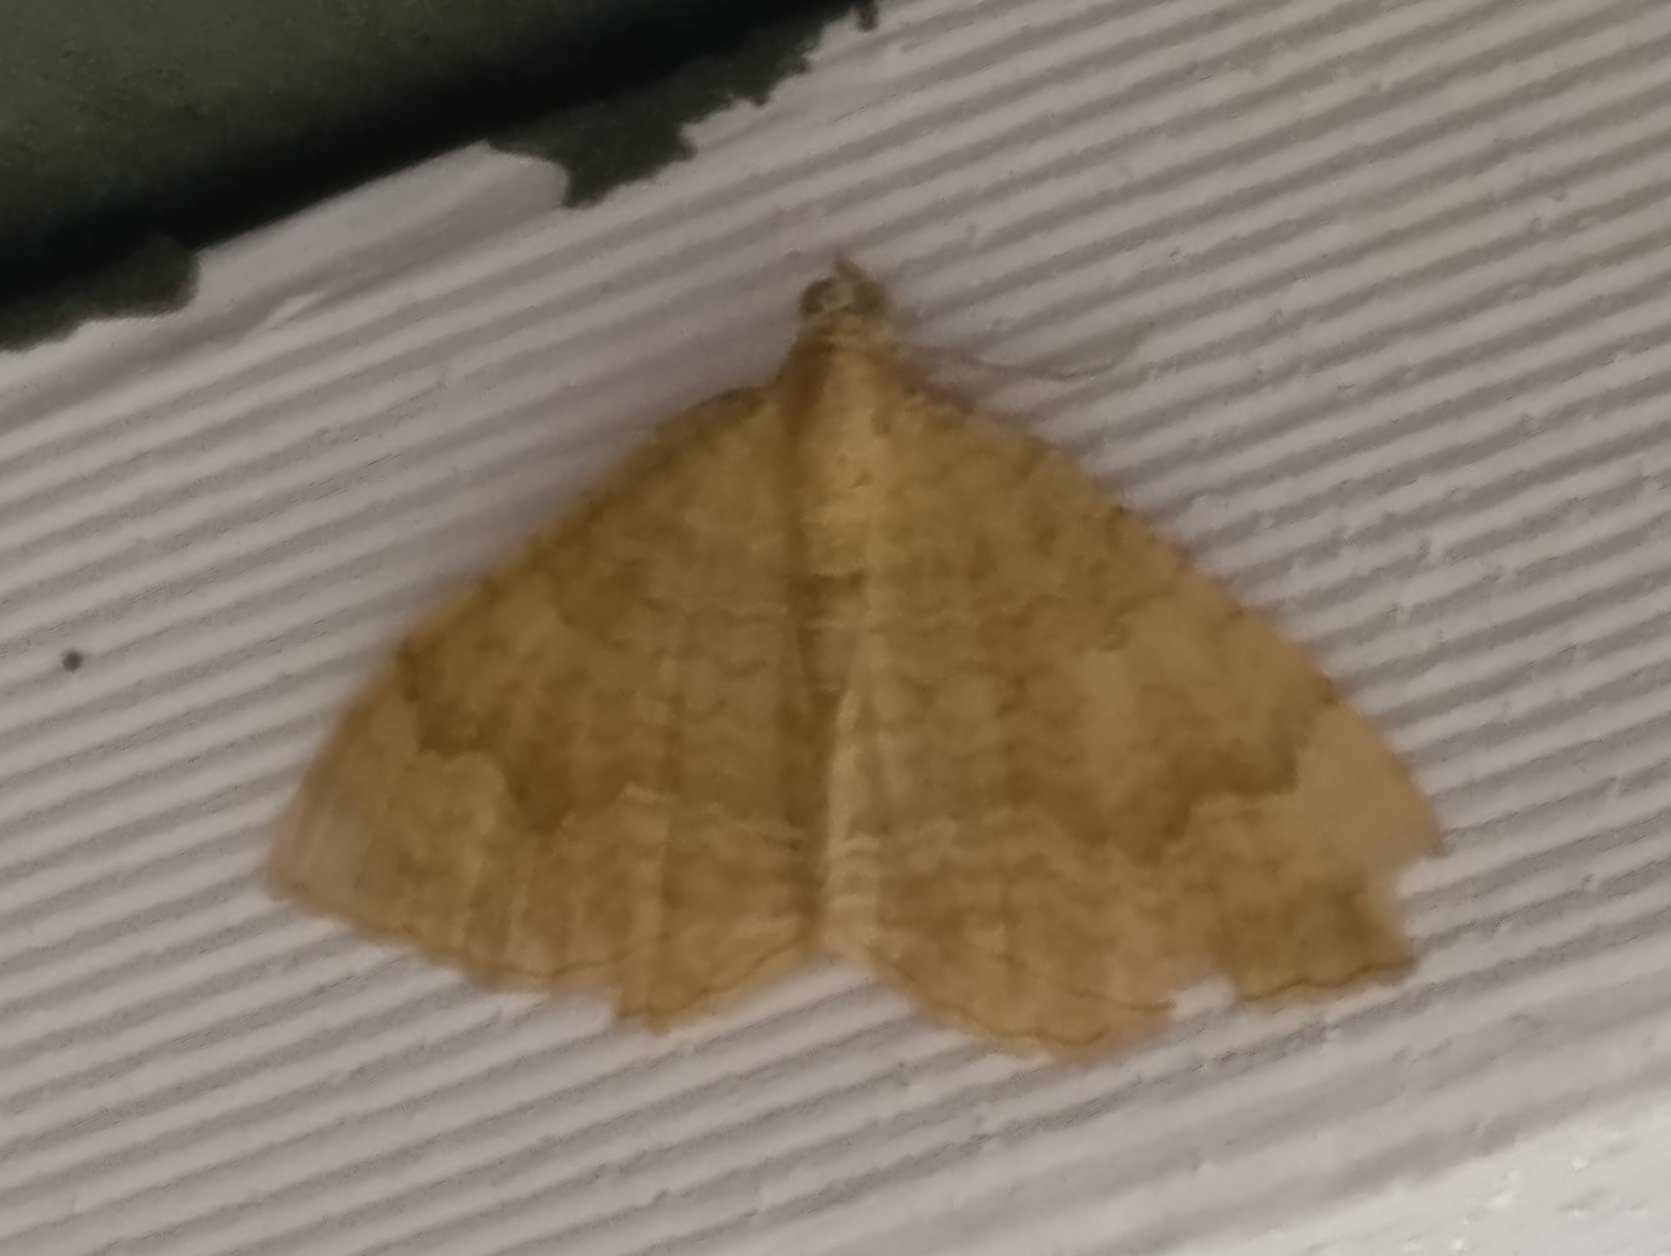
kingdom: Animalia
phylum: Arthropoda
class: Insecta
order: Lepidoptera
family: Geometridae
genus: Camptogramma
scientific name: Camptogramma bilineata
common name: Yellow shell
